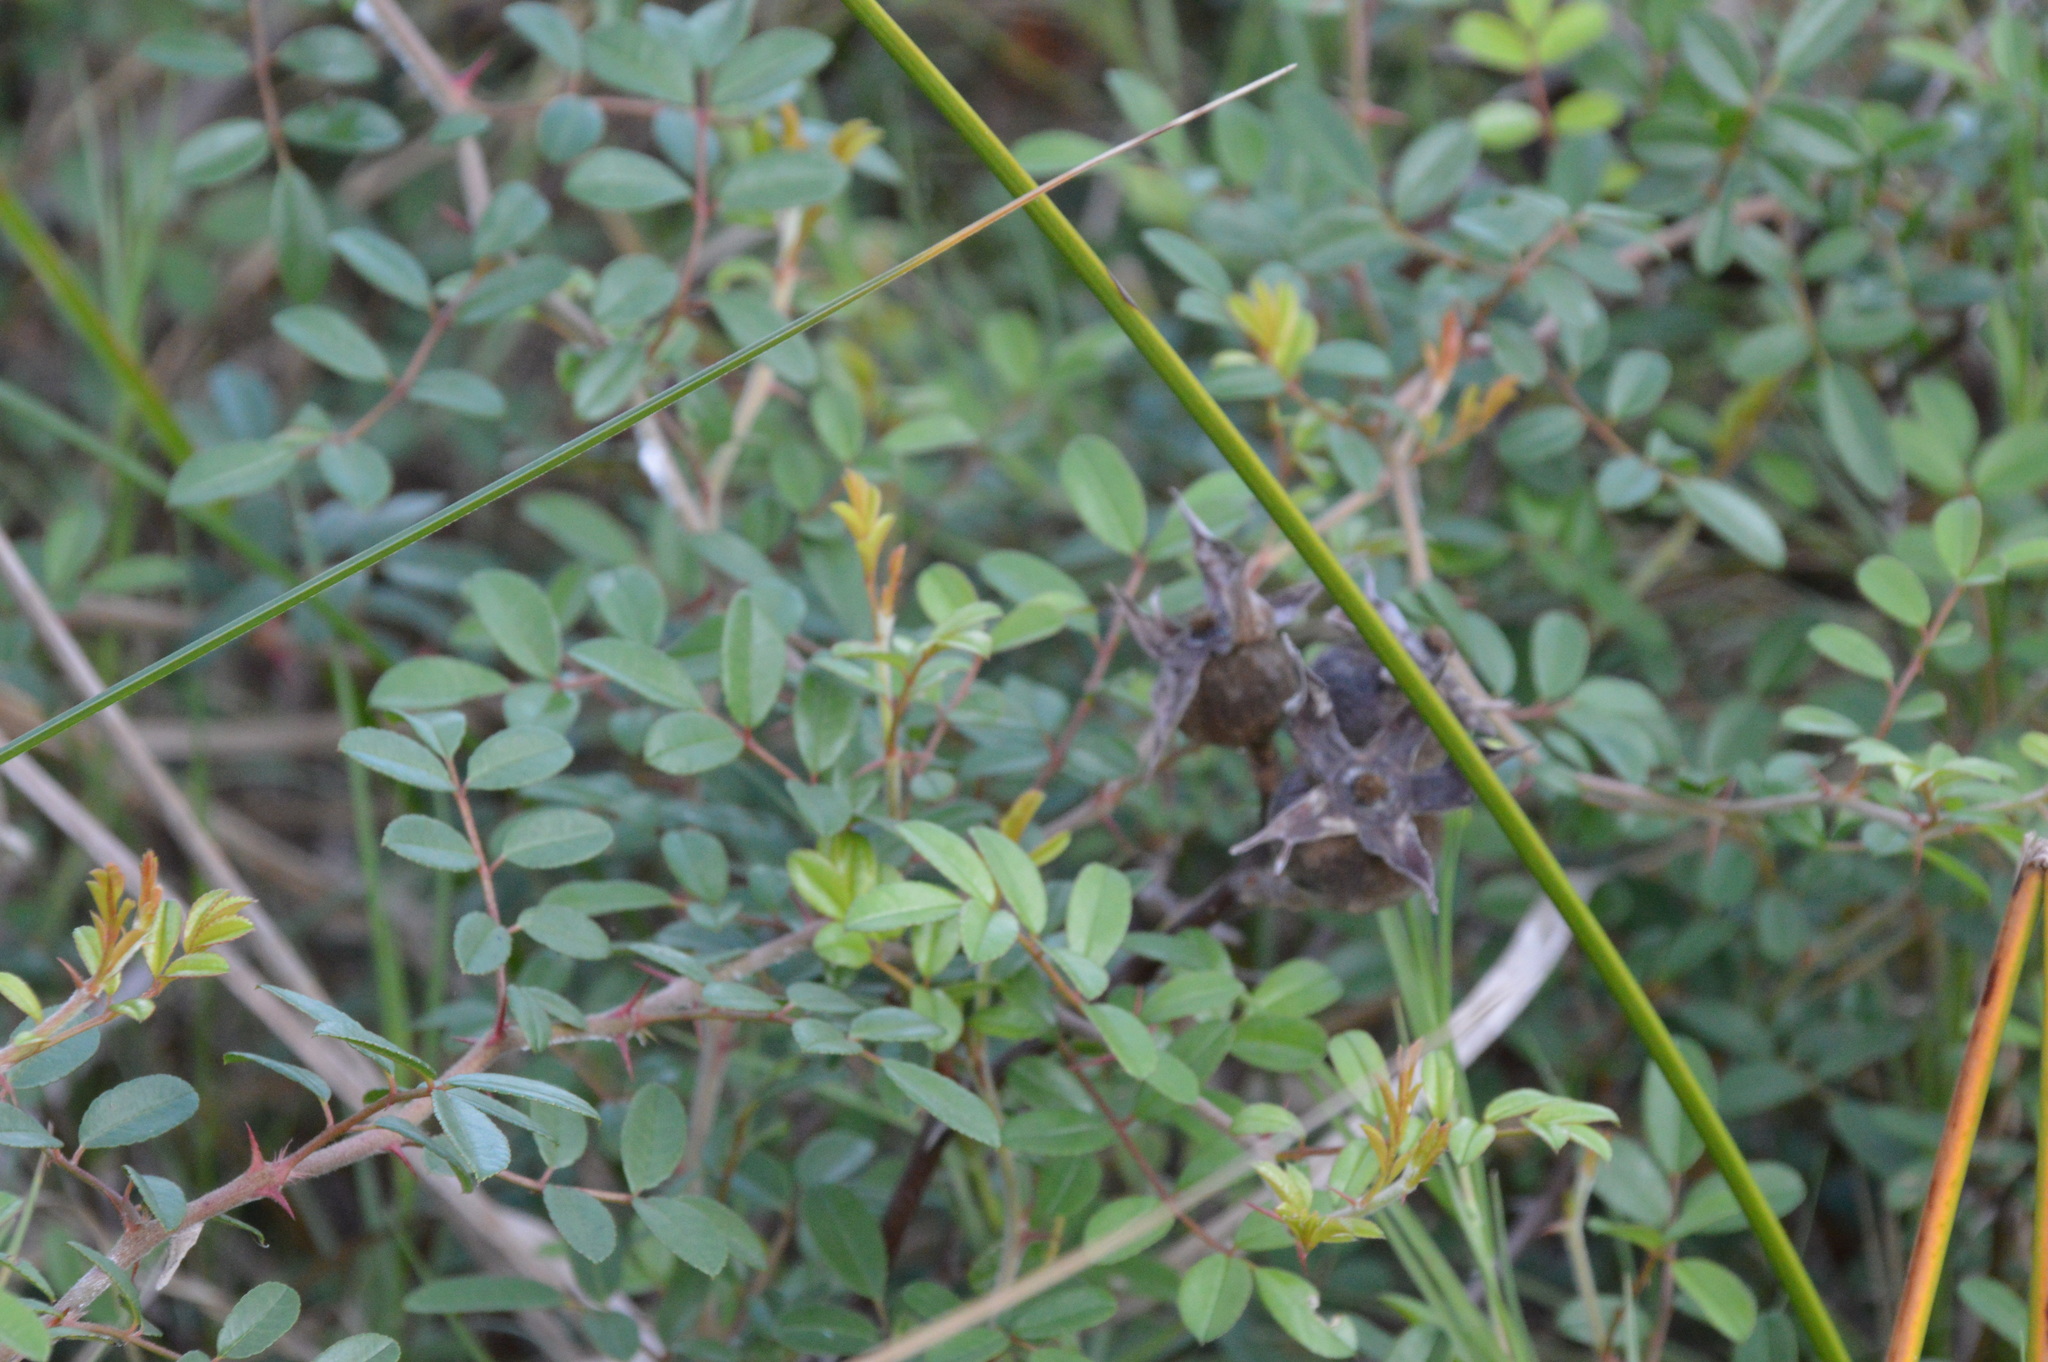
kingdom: Plantae
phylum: Tracheophyta
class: Magnoliopsida
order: Rosales
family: Rosaceae
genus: Rosa
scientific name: Rosa bracteata
